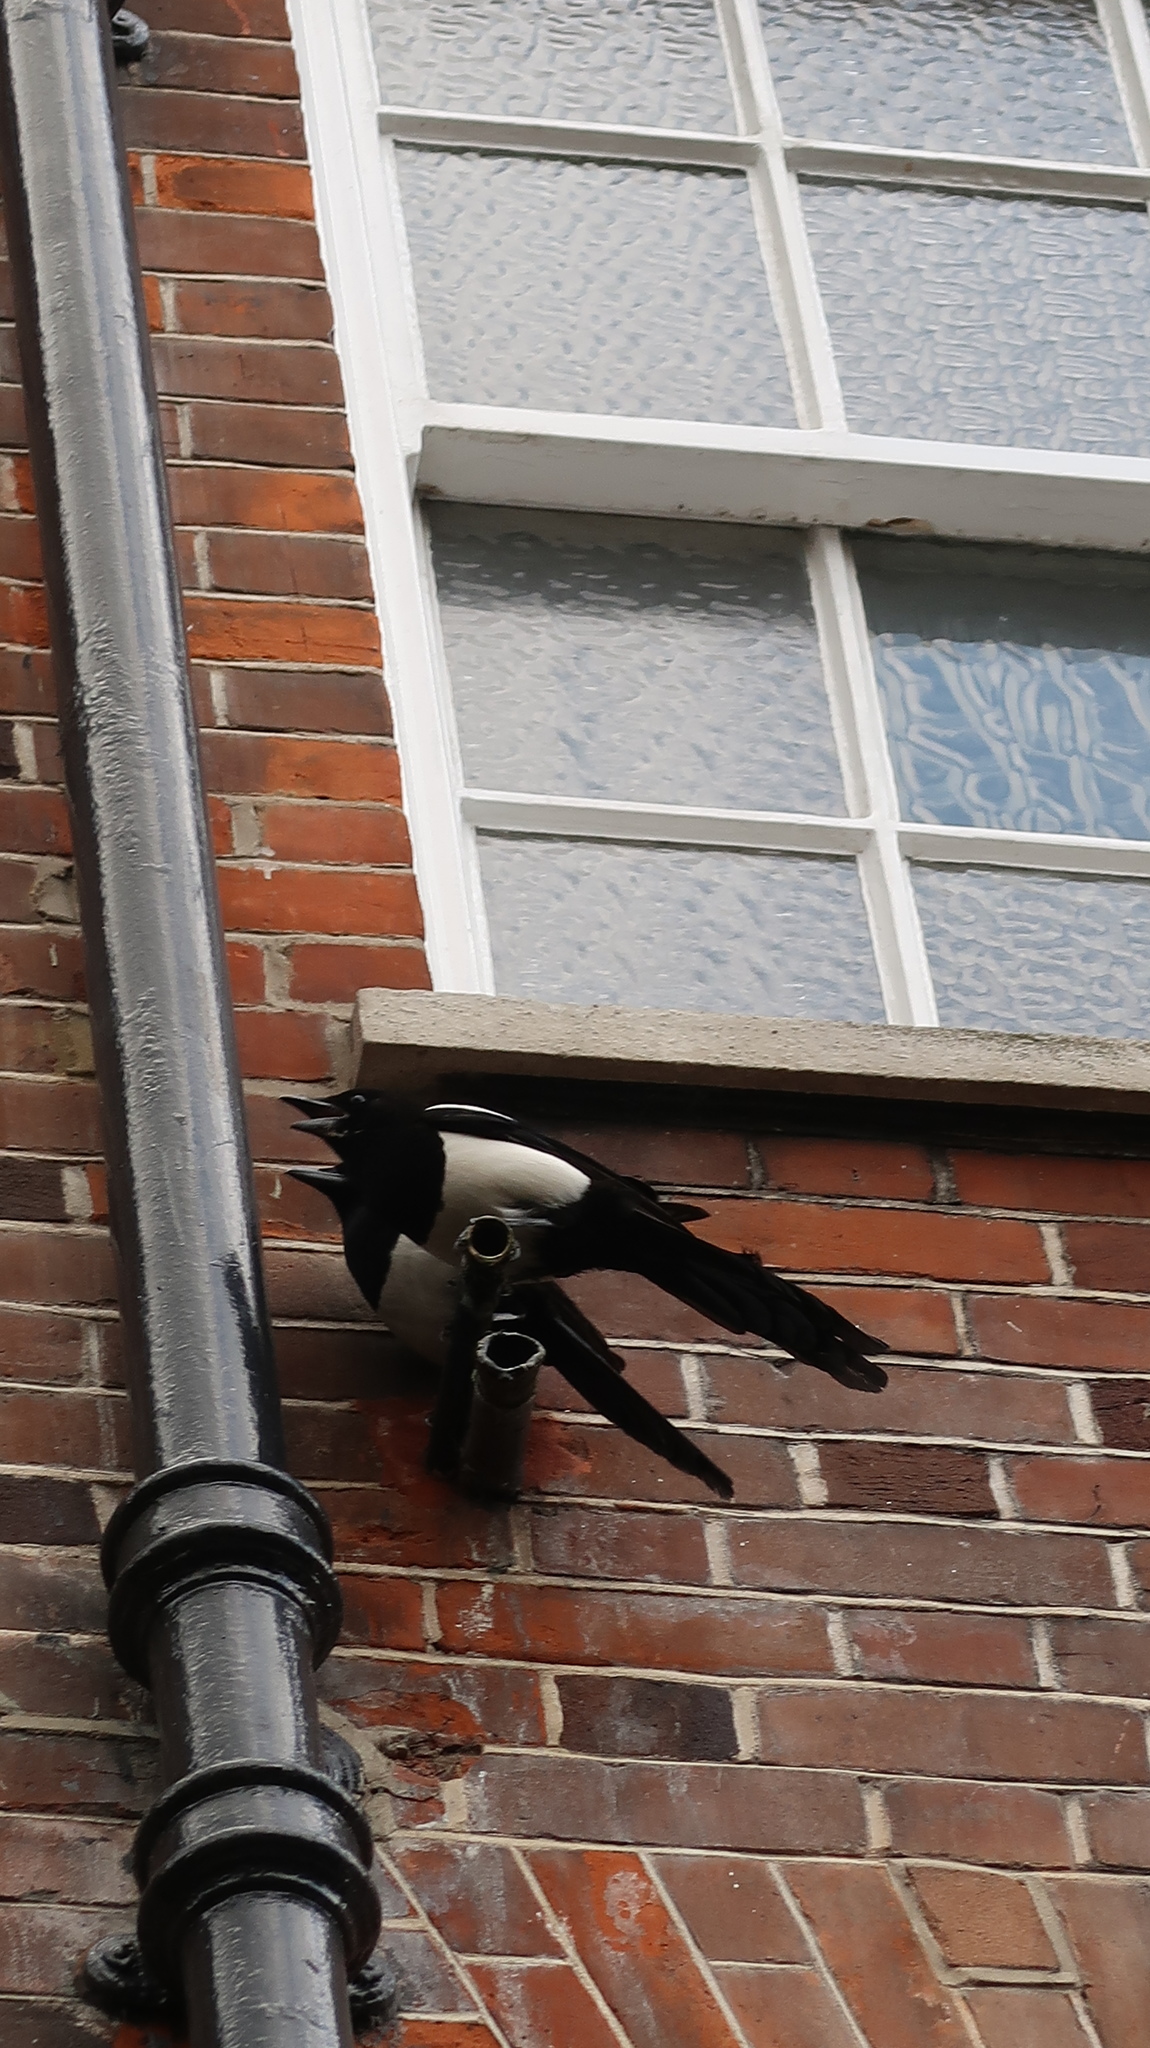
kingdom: Animalia
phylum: Chordata
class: Aves
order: Passeriformes
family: Corvidae
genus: Pica
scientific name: Pica pica
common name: Eurasian magpie
